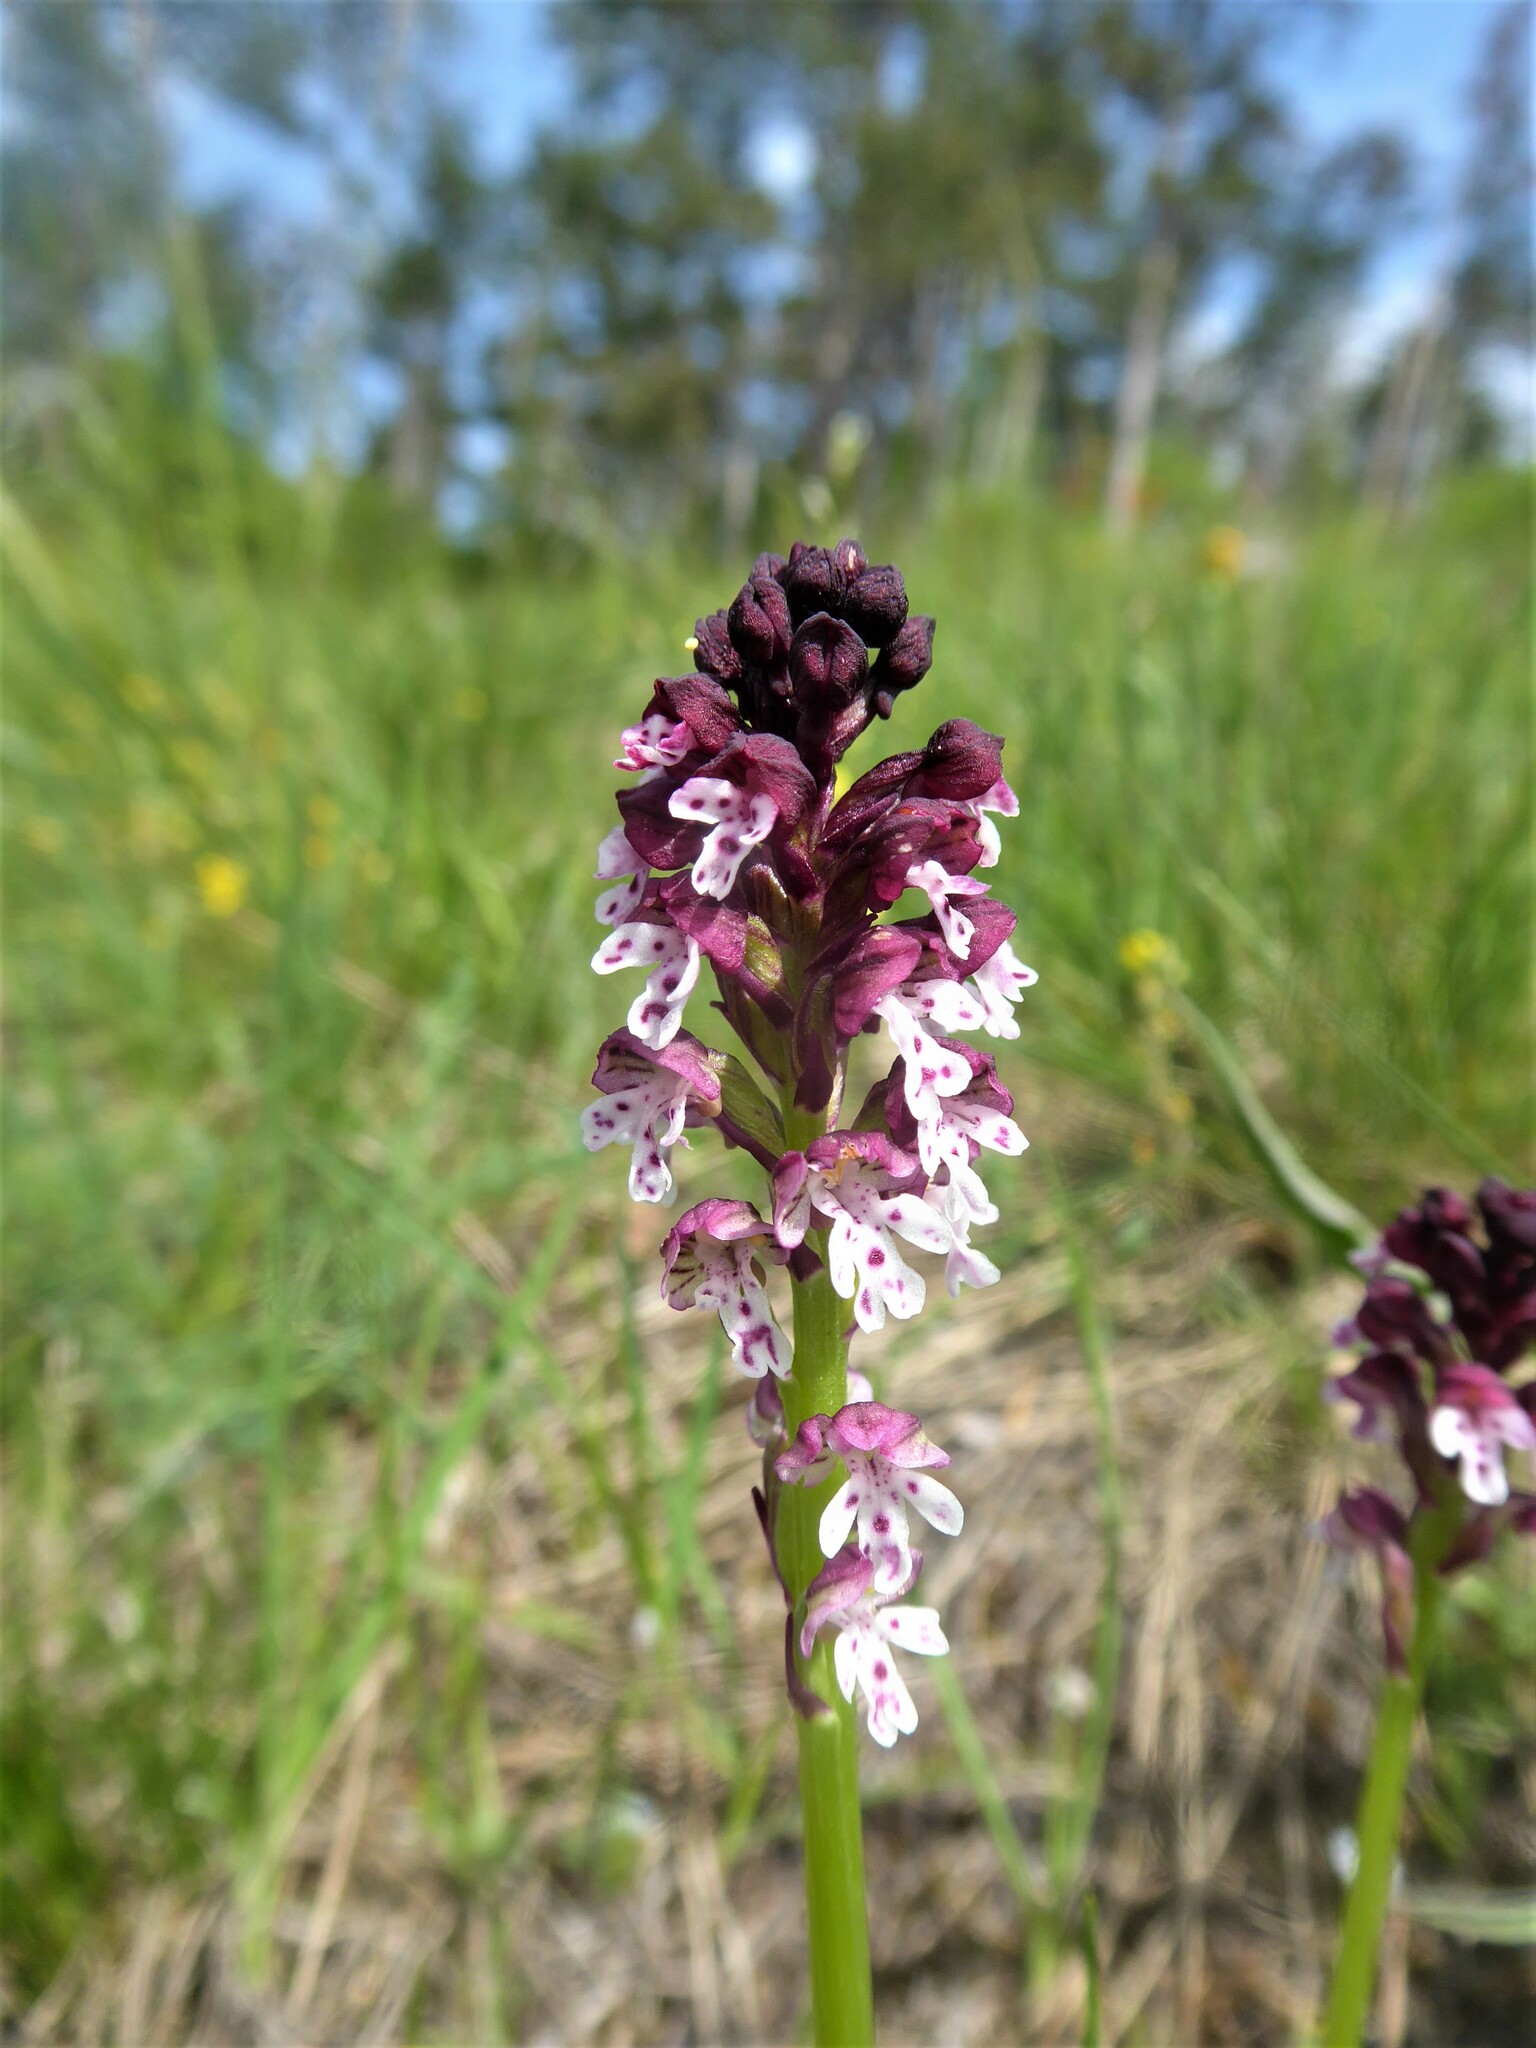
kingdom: Plantae
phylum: Tracheophyta
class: Liliopsida
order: Asparagales
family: Orchidaceae
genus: Neotinea
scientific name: Neotinea ustulata
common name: Burnt orchid
